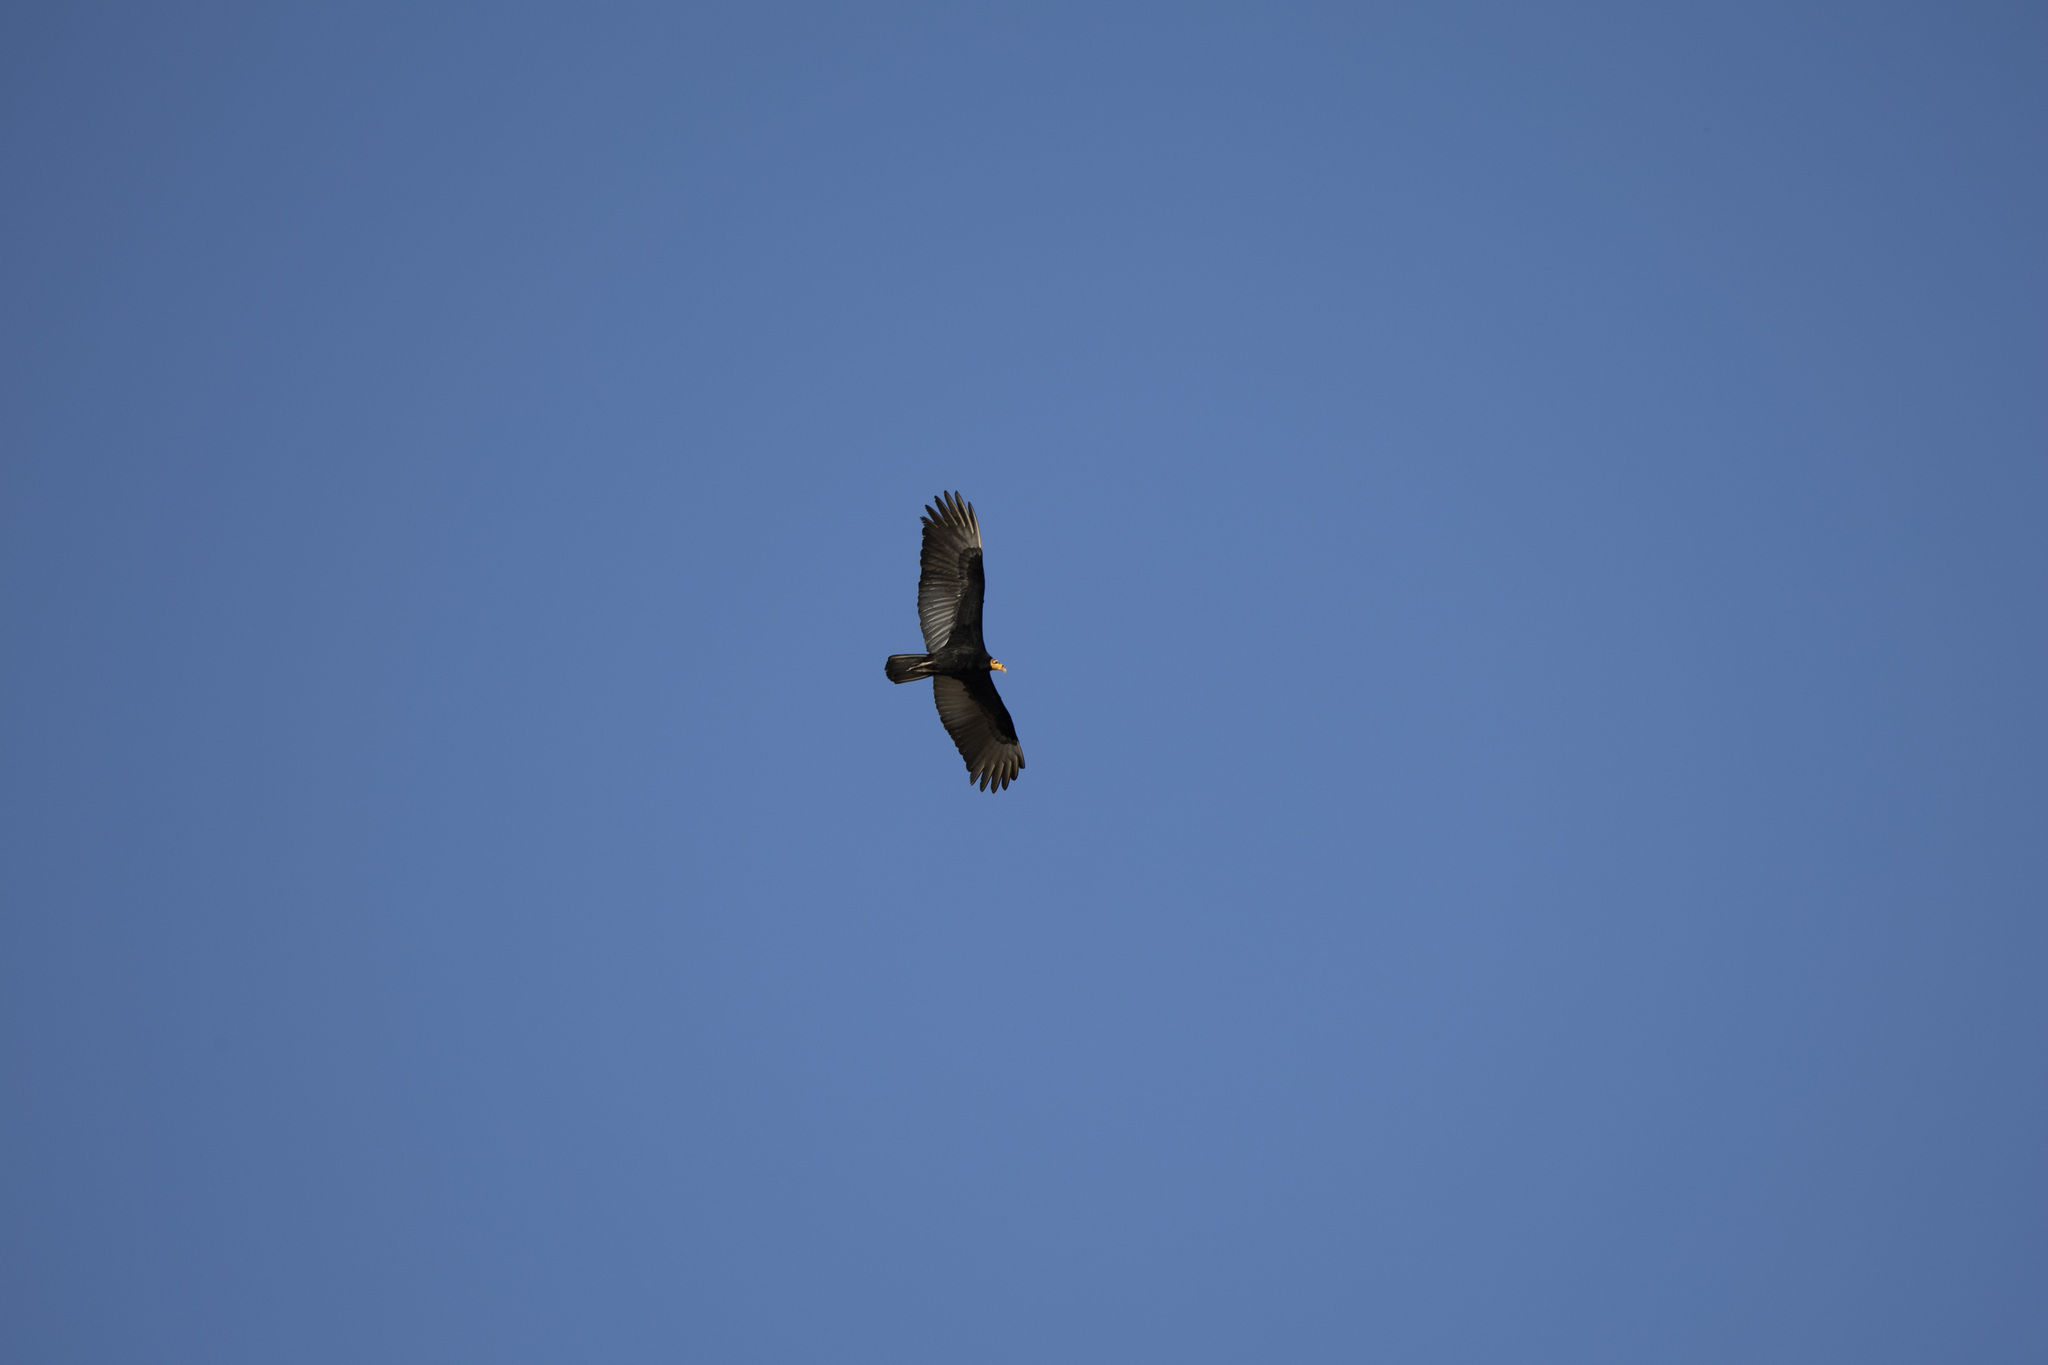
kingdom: Animalia
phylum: Chordata
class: Aves
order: Accipitriformes
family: Cathartidae
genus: Cathartes
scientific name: Cathartes melambrotus
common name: Greater yellow-headed vulture
